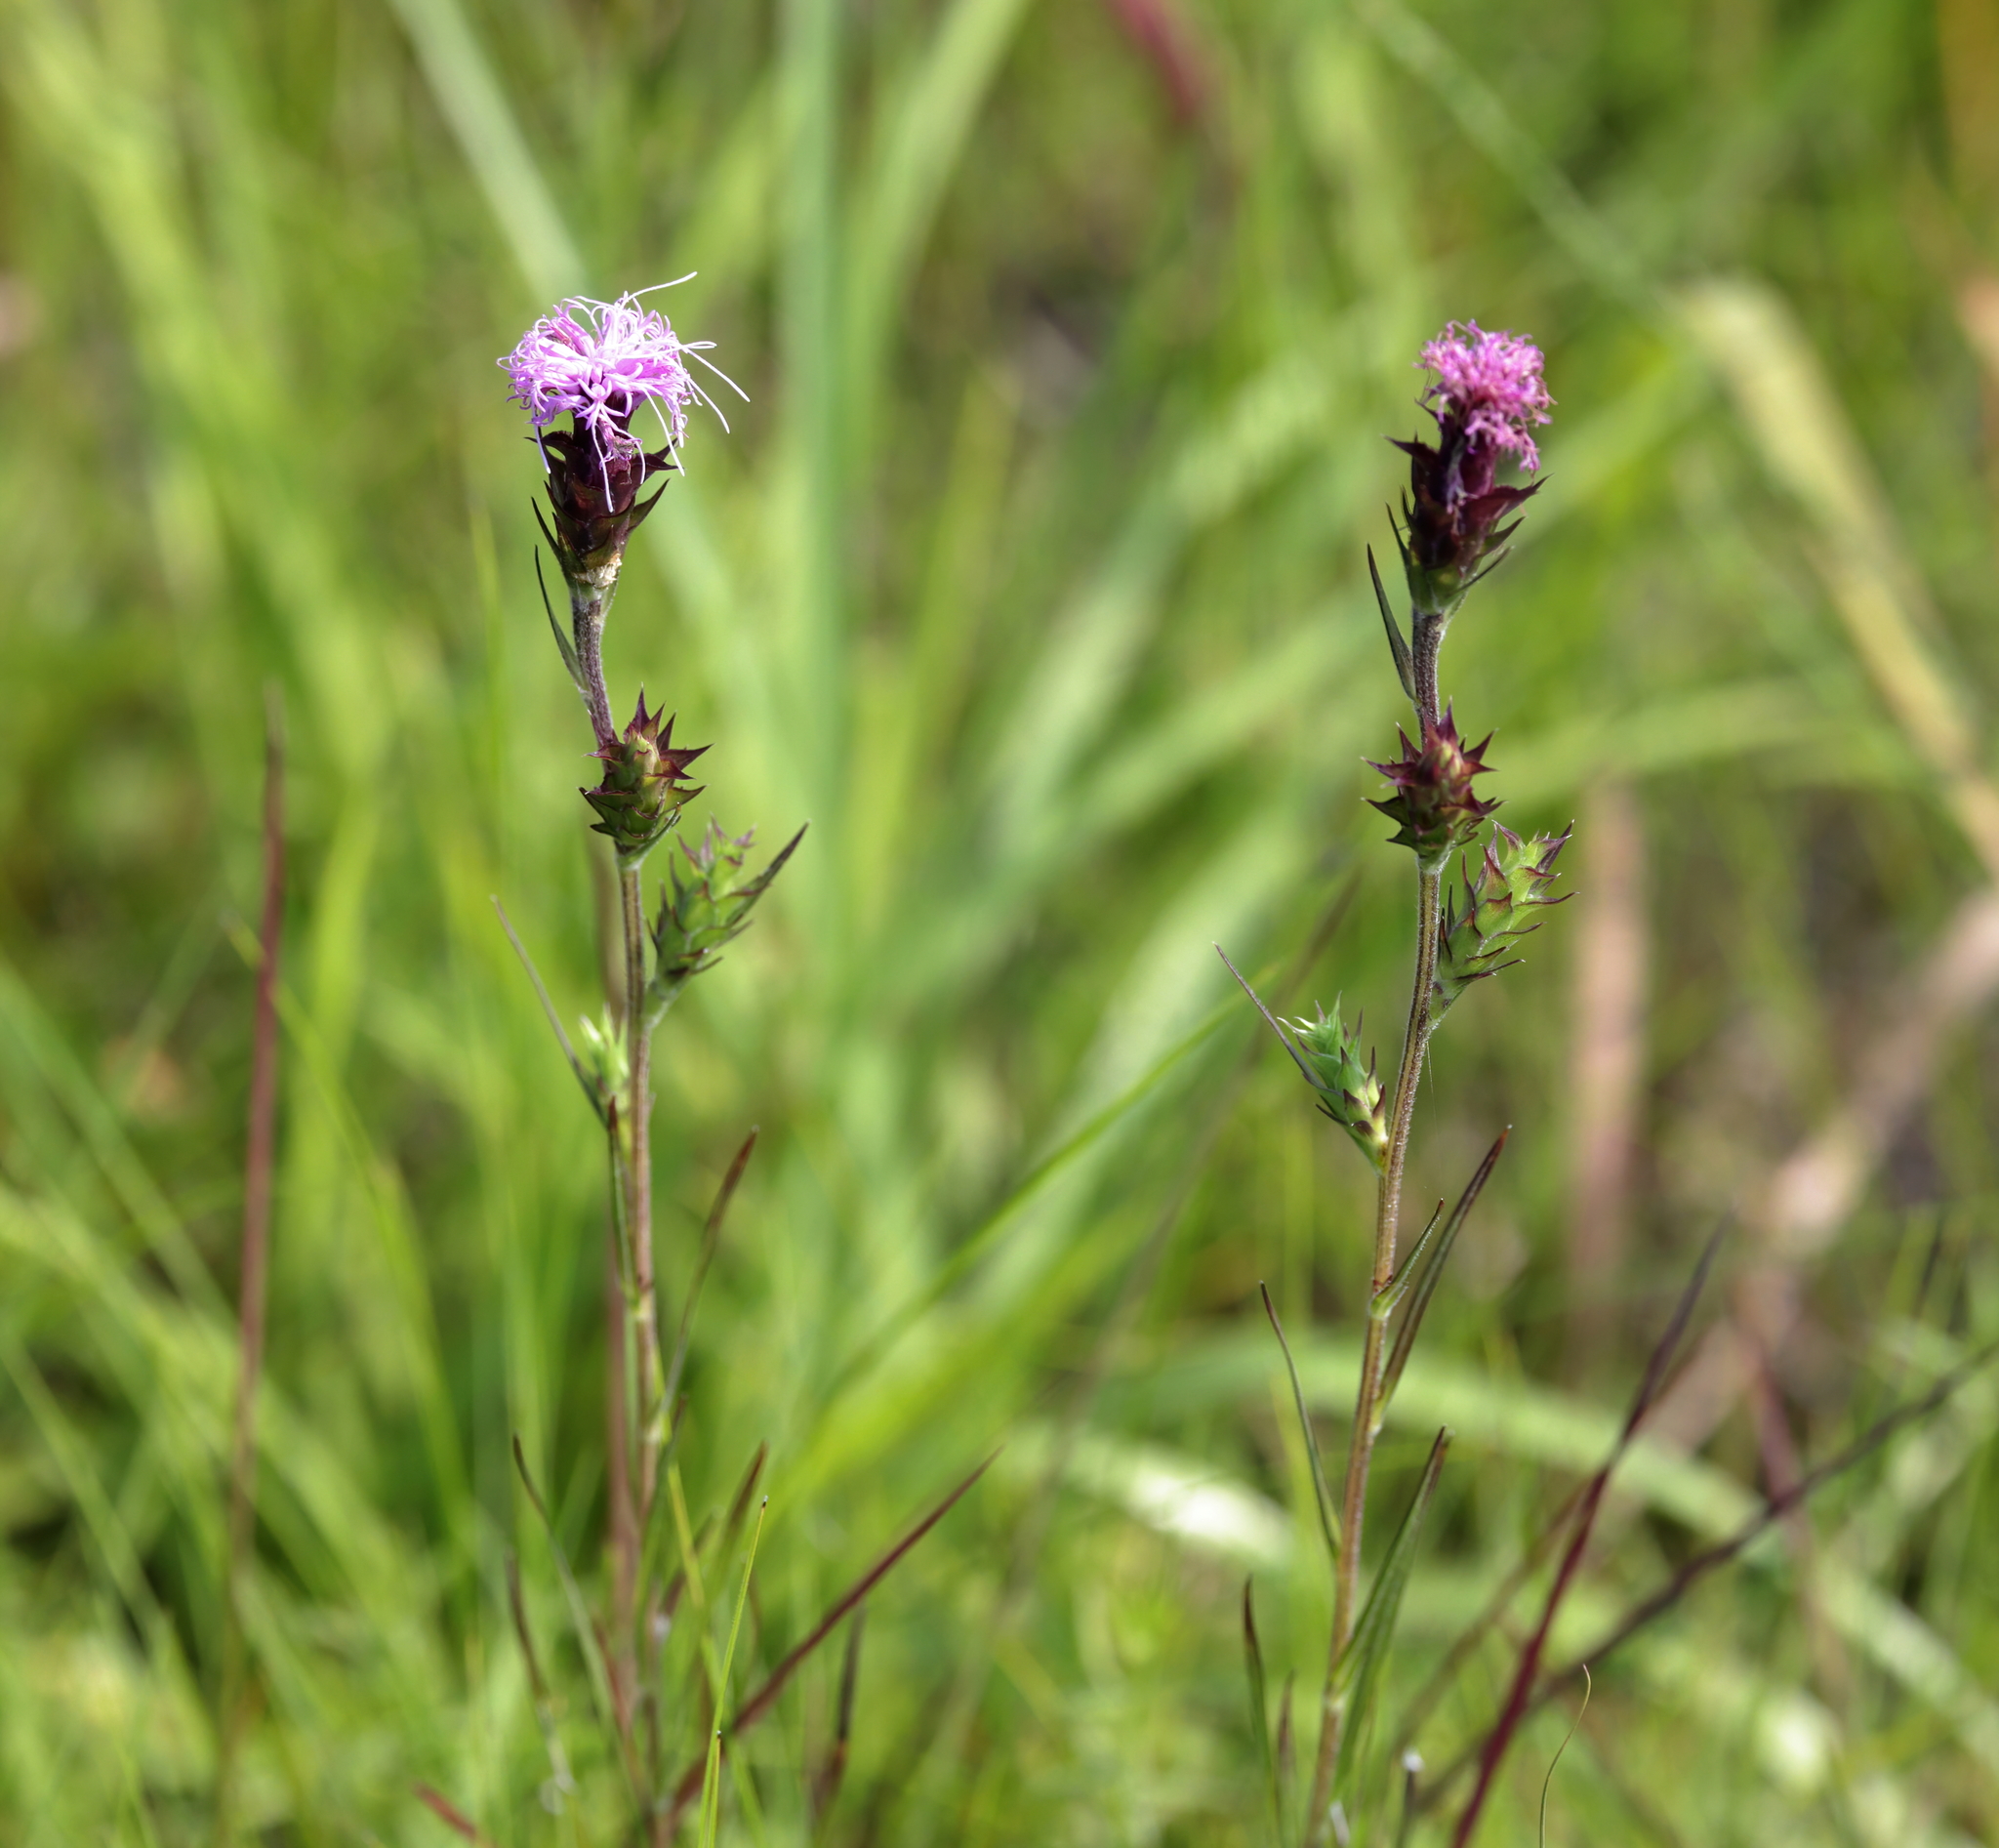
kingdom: Plantae
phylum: Tracheophyta
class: Magnoliopsida
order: Asterales
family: Asteraceae
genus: Liatris
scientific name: Liatris squarrosa
